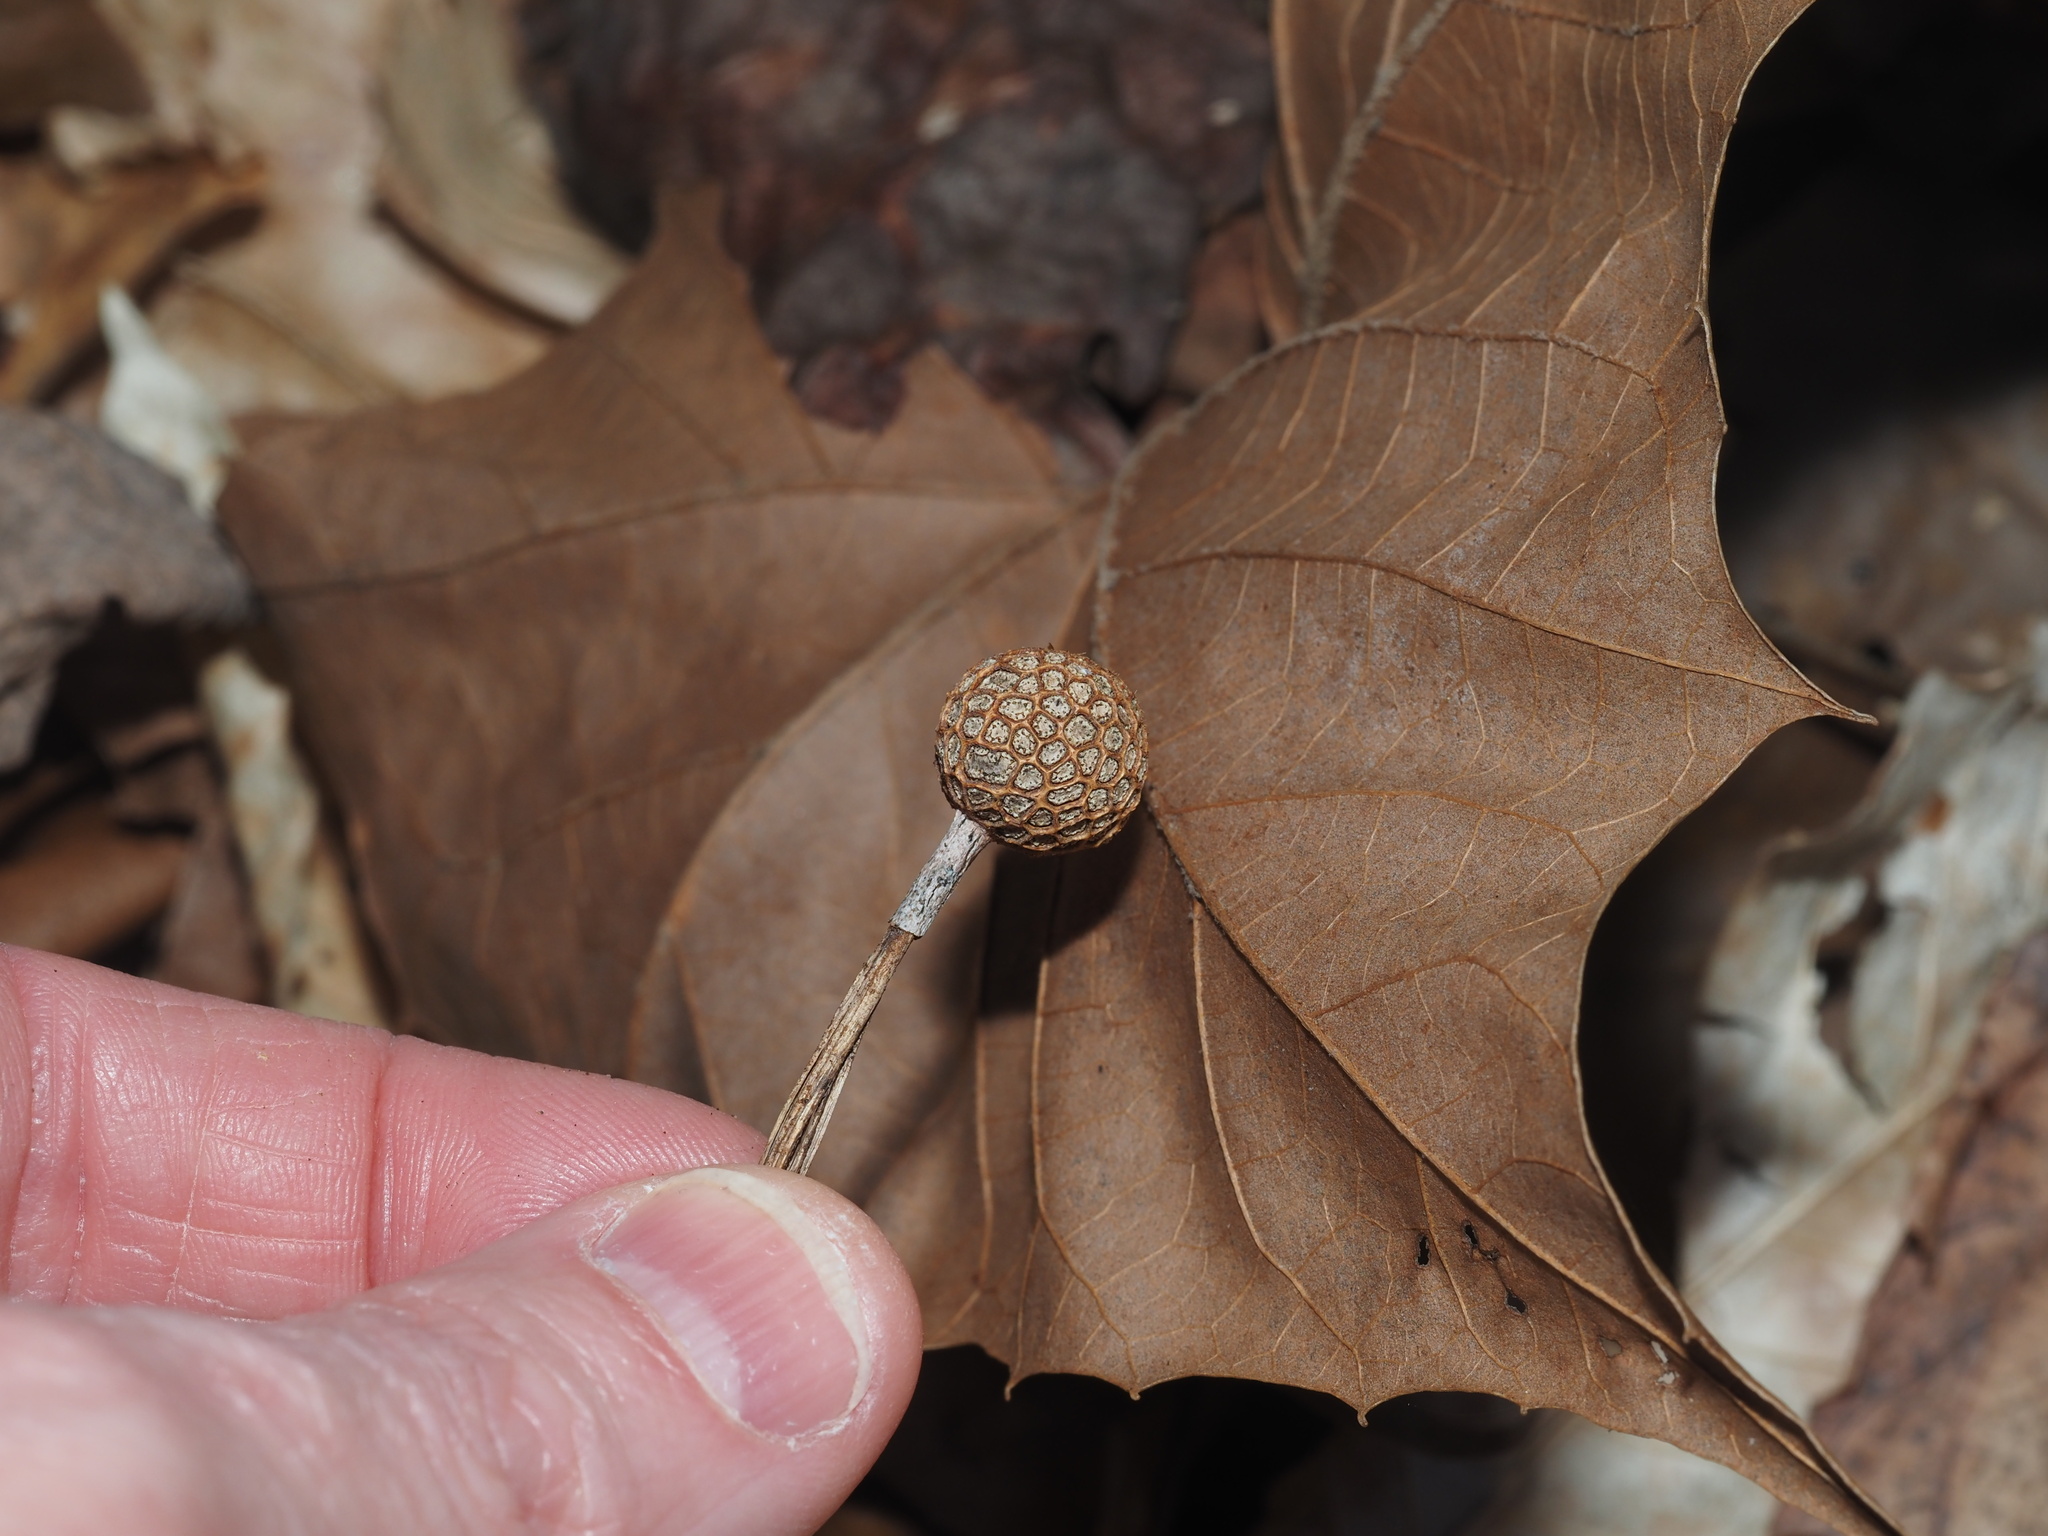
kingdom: Plantae
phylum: Tracheophyta
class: Magnoliopsida
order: Proteales
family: Platanaceae
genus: Platanus
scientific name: Platanus occidentalis
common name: American sycamore
